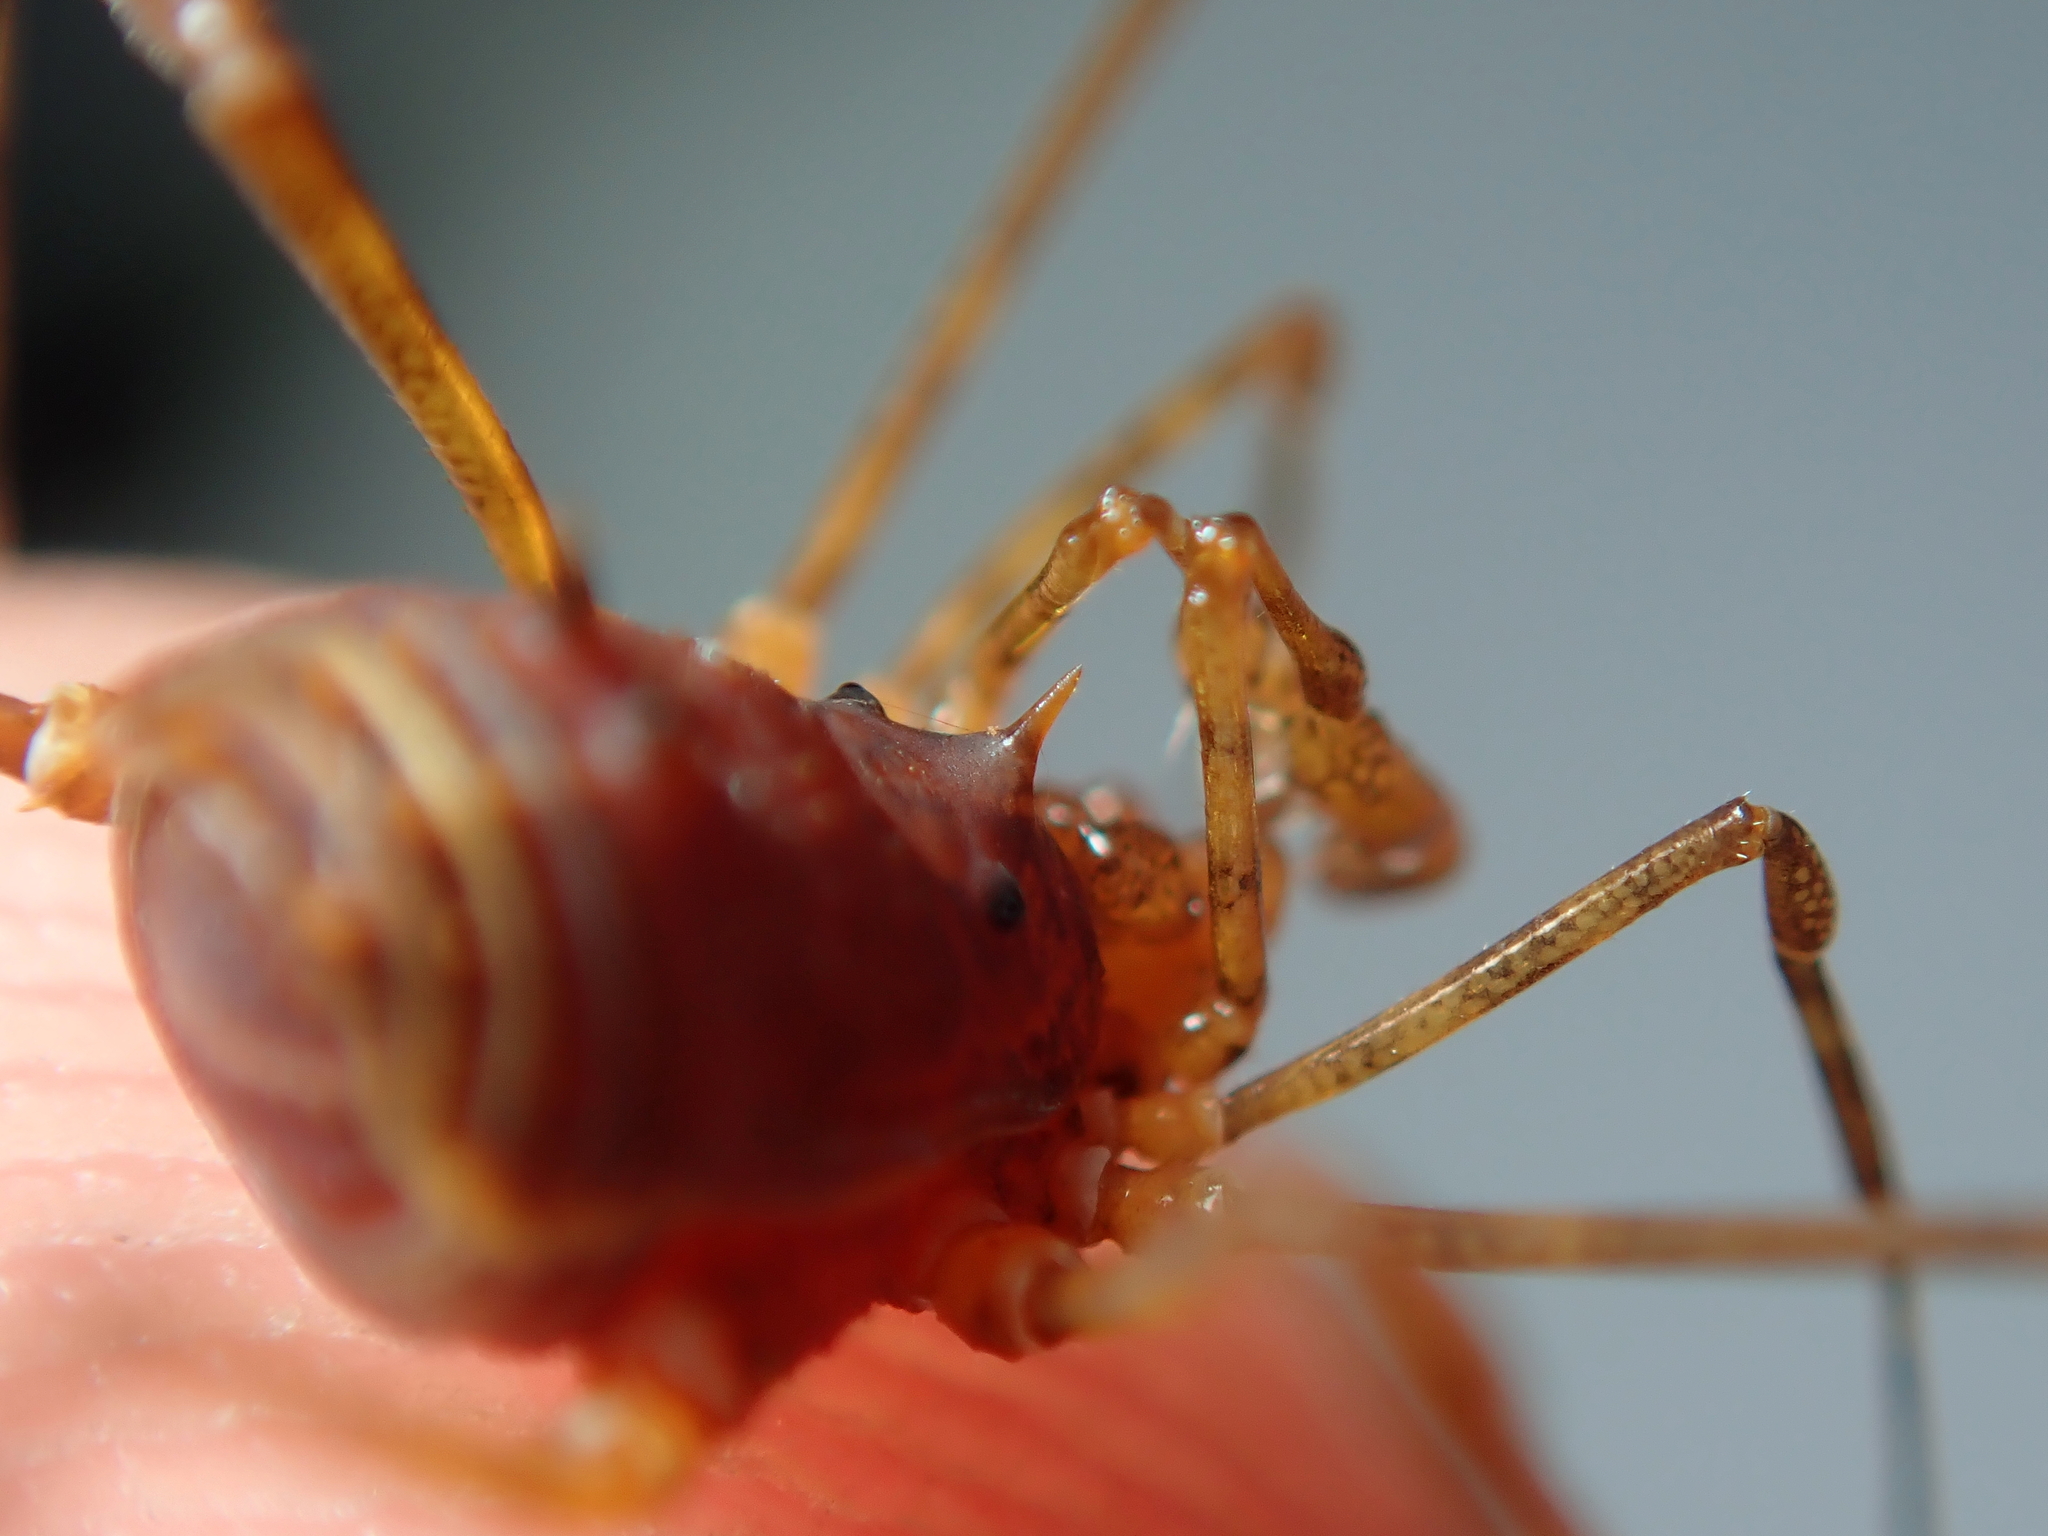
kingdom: Animalia
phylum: Arthropoda
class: Arachnida
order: Opiliones
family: Stygnidae
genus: Stygnus
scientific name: Stygnus luteus
